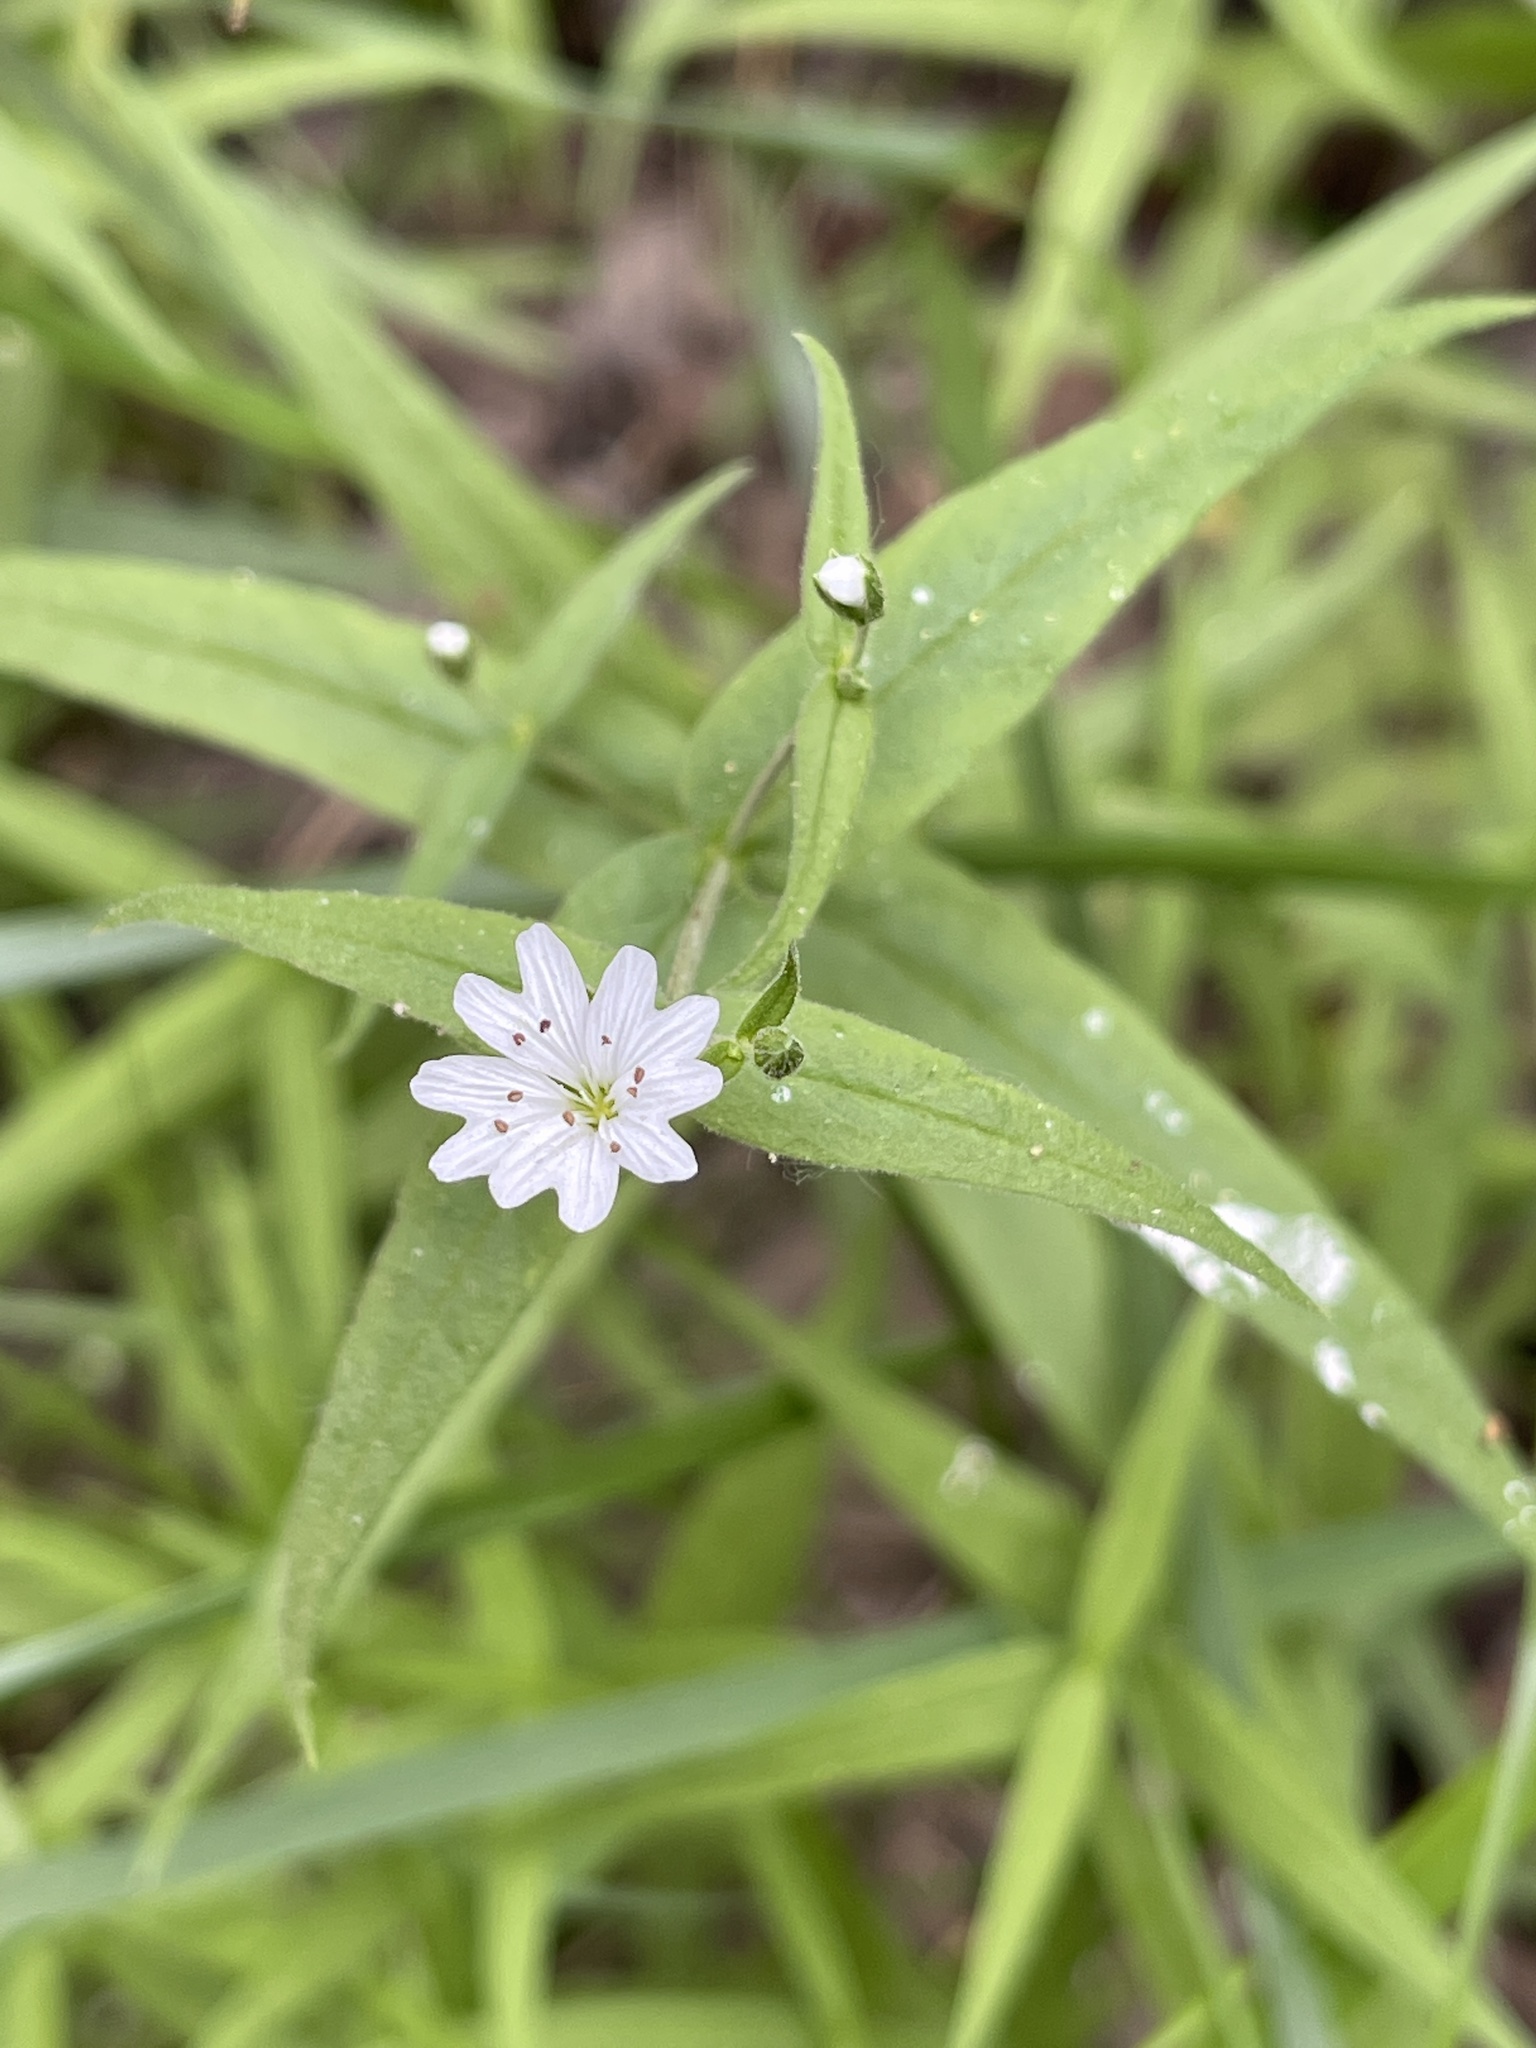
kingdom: Plantae
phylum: Tracheophyta
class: Magnoliopsida
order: Caryophyllales
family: Caryophyllaceae
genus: Schizotechium
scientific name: Schizotechium jamesianum
